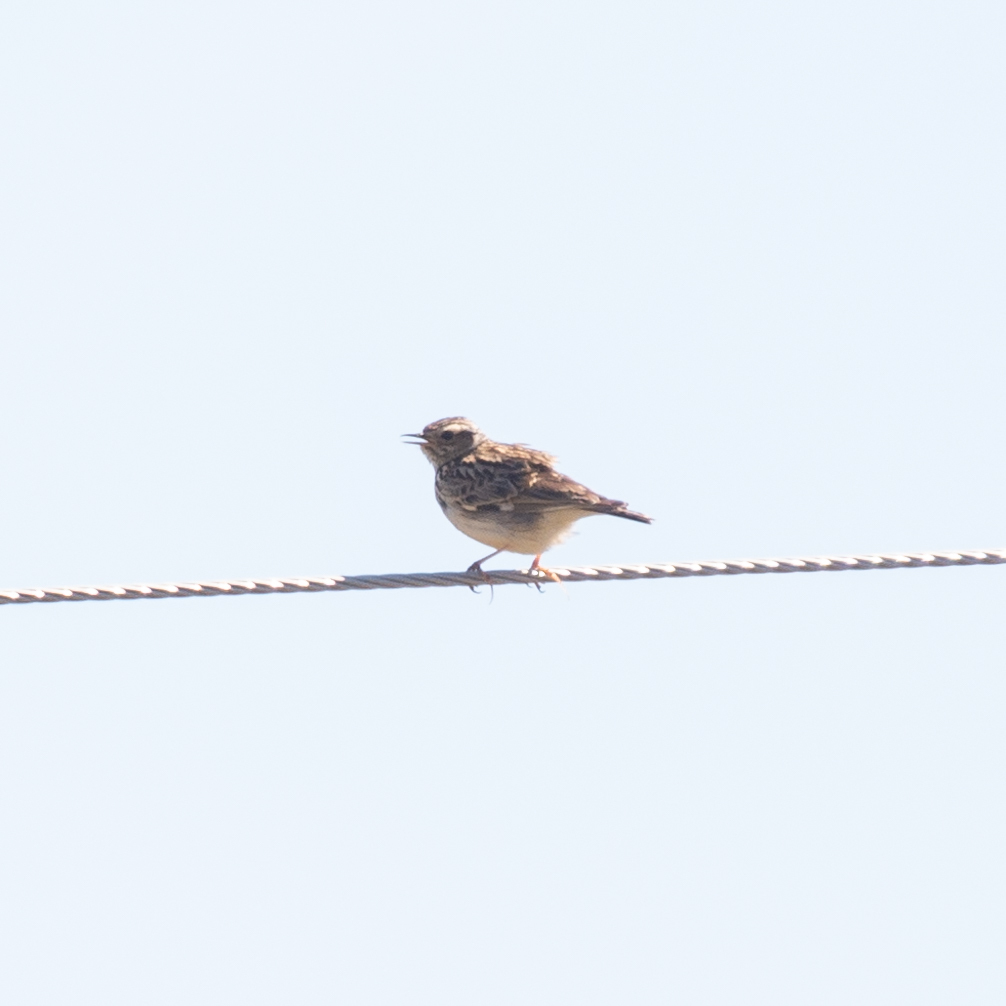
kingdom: Animalia
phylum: Chordata
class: Aves
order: Passeriformes
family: Alaudidae
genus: Lullula
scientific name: Lullula arborea
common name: Woodlark
